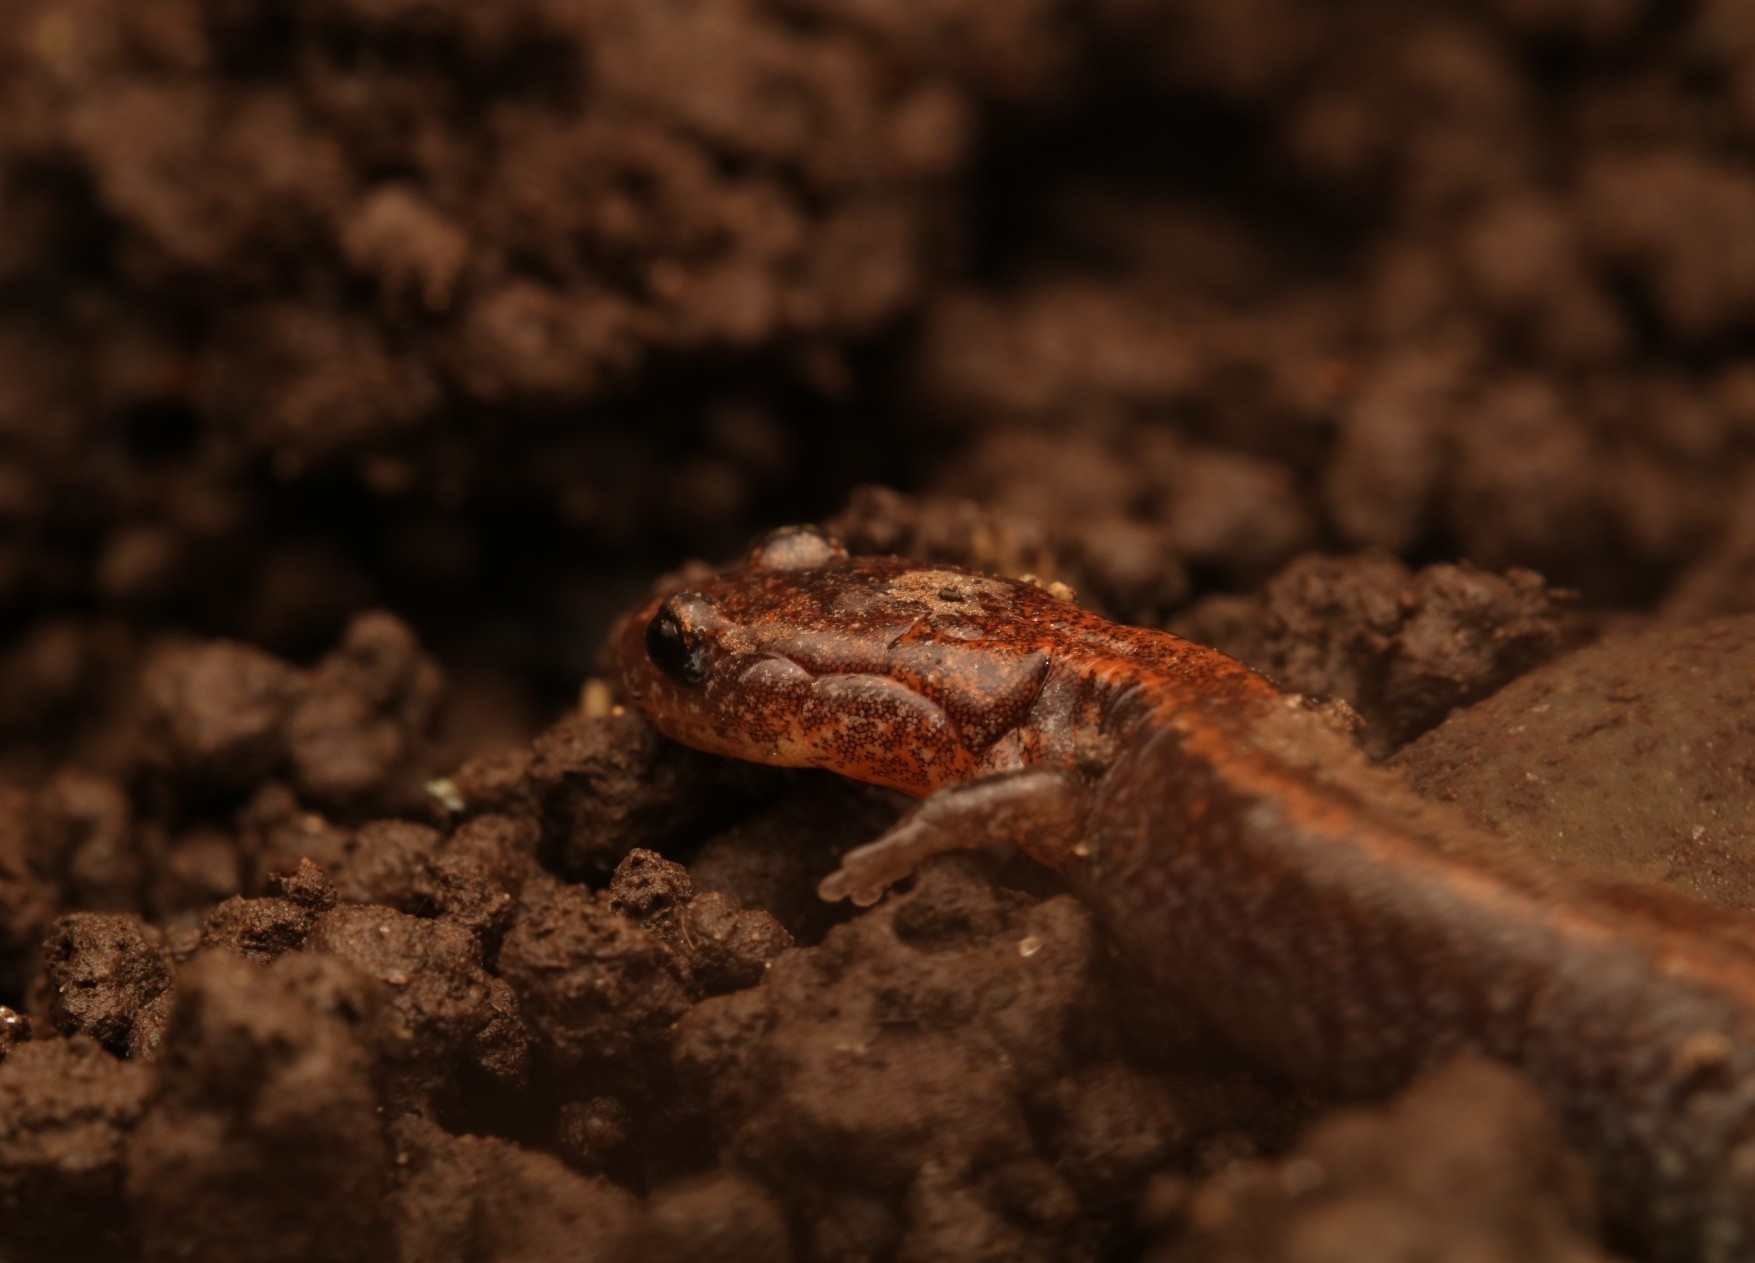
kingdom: Animalia
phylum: Chordata
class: Amphibia
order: Caudata
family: Plethodontidae
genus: Plethodon
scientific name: Plethodon cinereus
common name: Redback salamander
